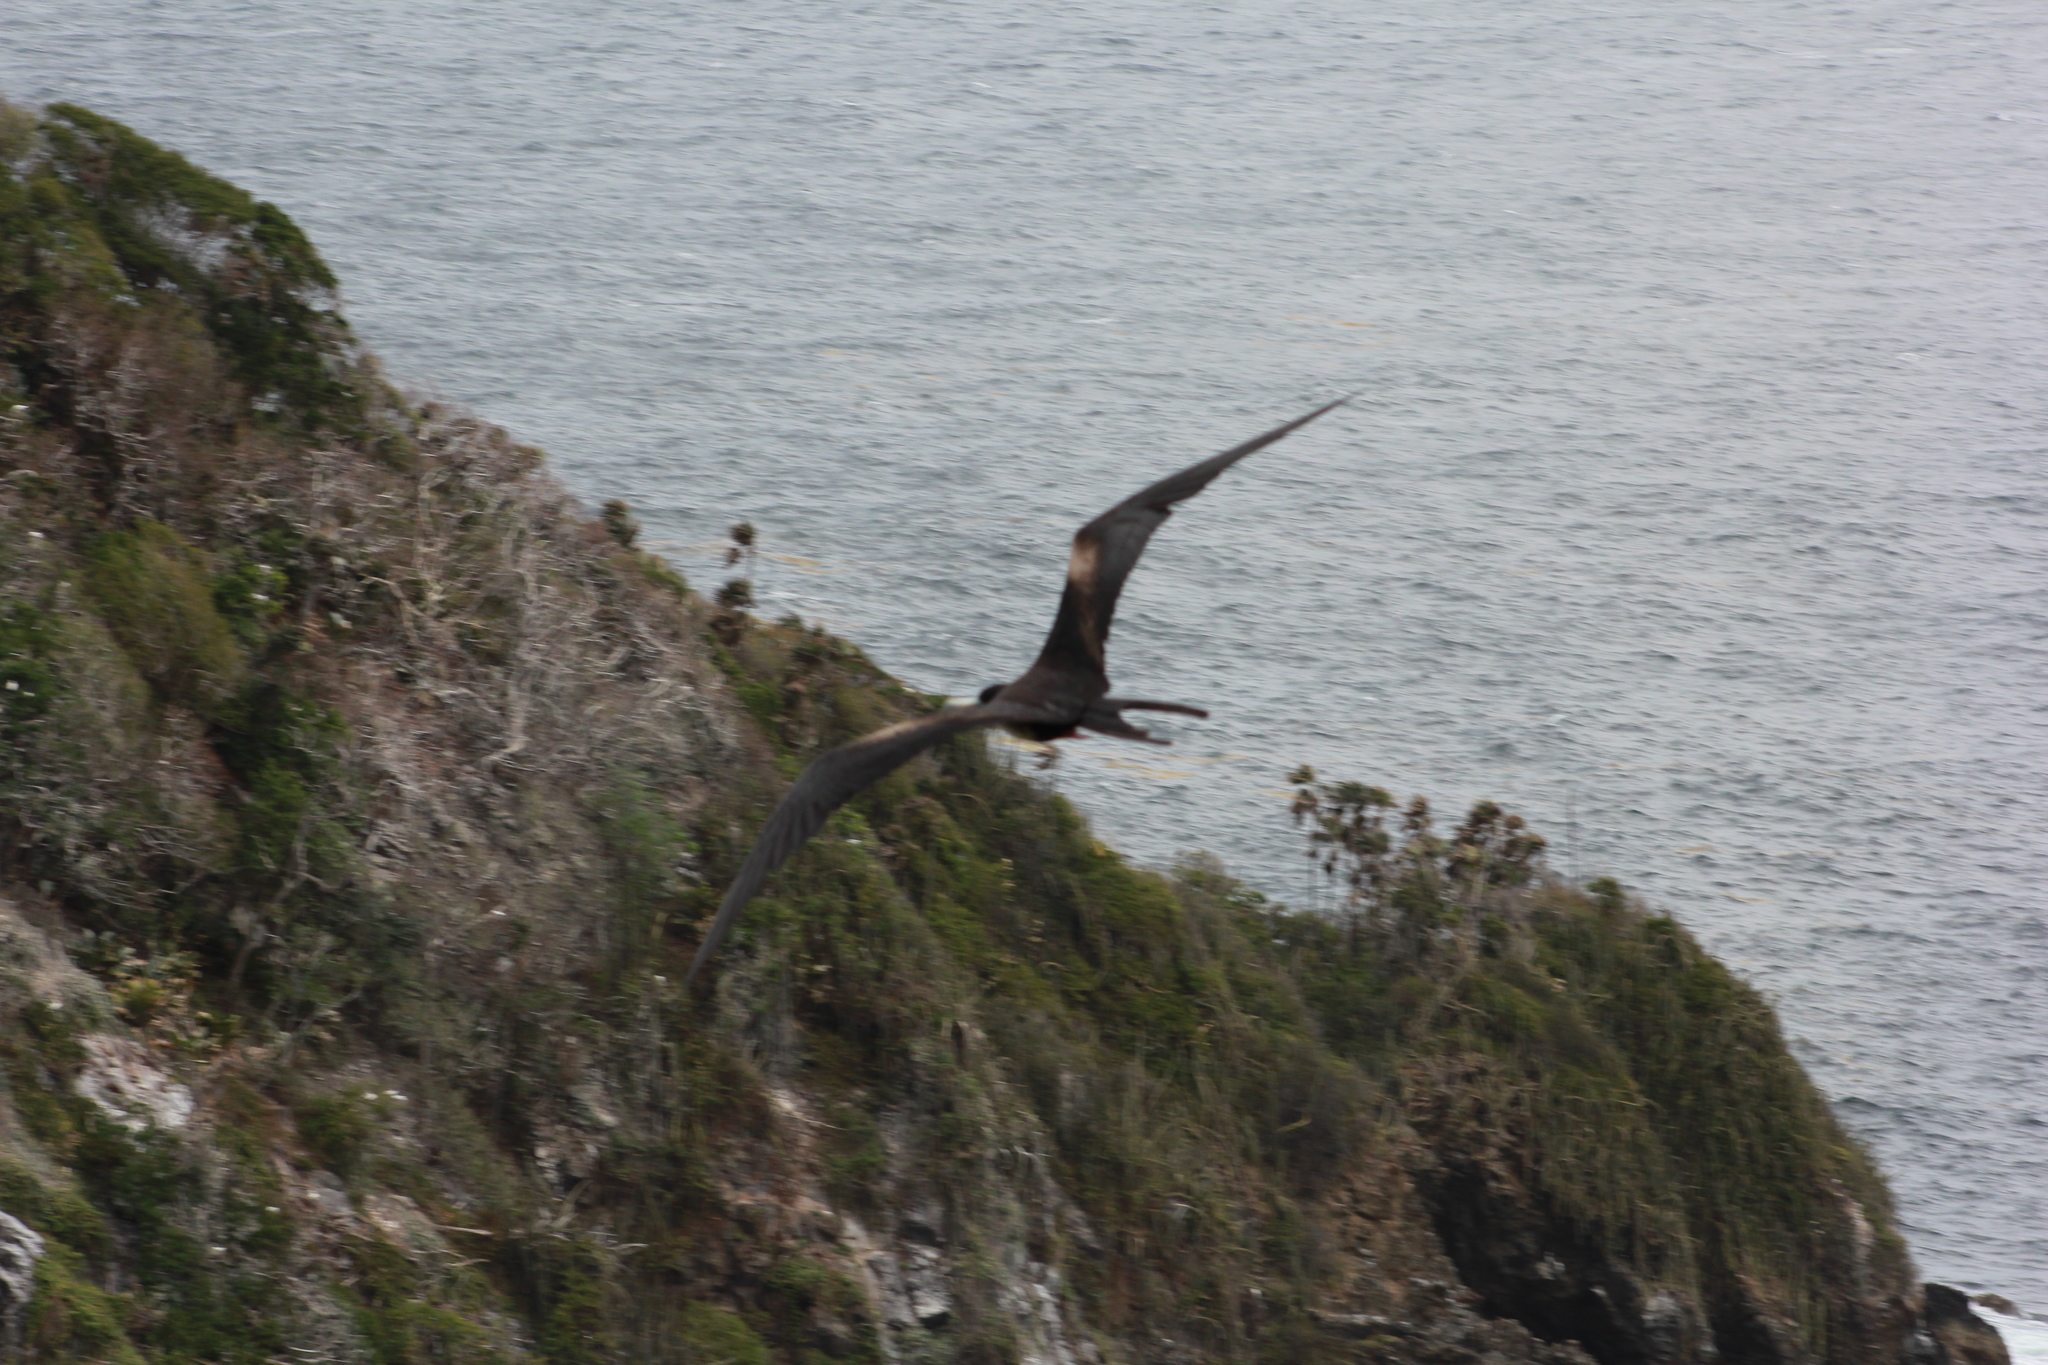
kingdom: Animalia
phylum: Chordata
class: Aves
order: Suliformes
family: Fregatidae
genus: Fregata
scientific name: Fregata magnificens
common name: Magnificent frigatebird
